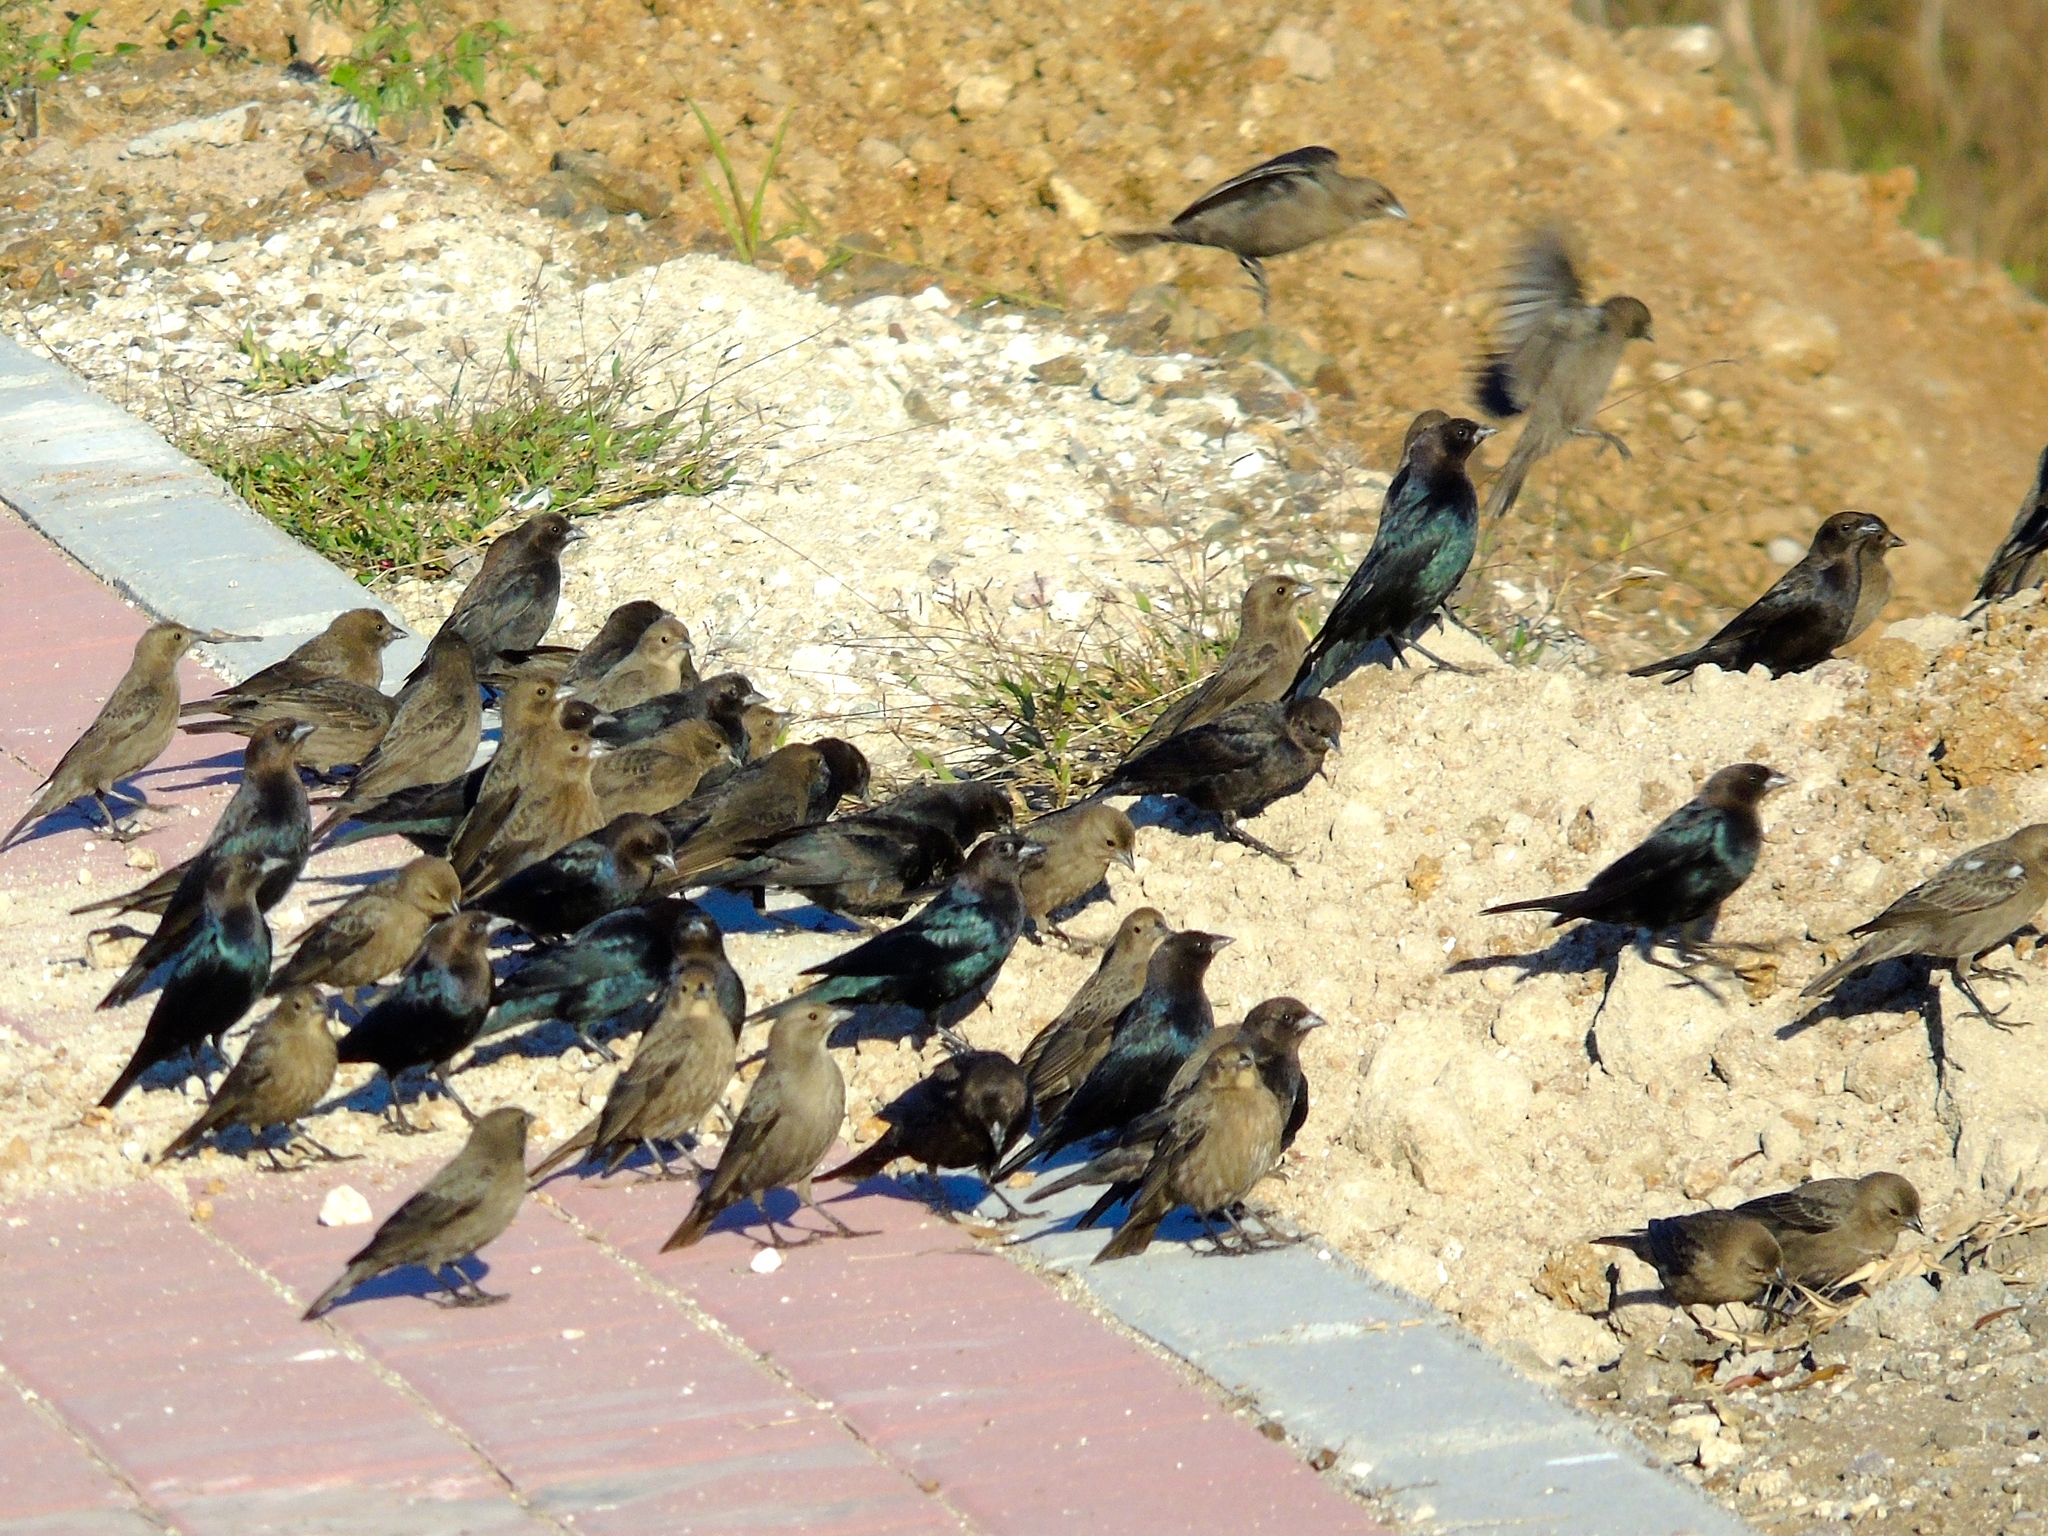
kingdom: Animalia
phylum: Chordata
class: Aves
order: Passeriformes
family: Icteridae
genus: Molothrus
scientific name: Molothrus ater
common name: Brown-headed cowbird
